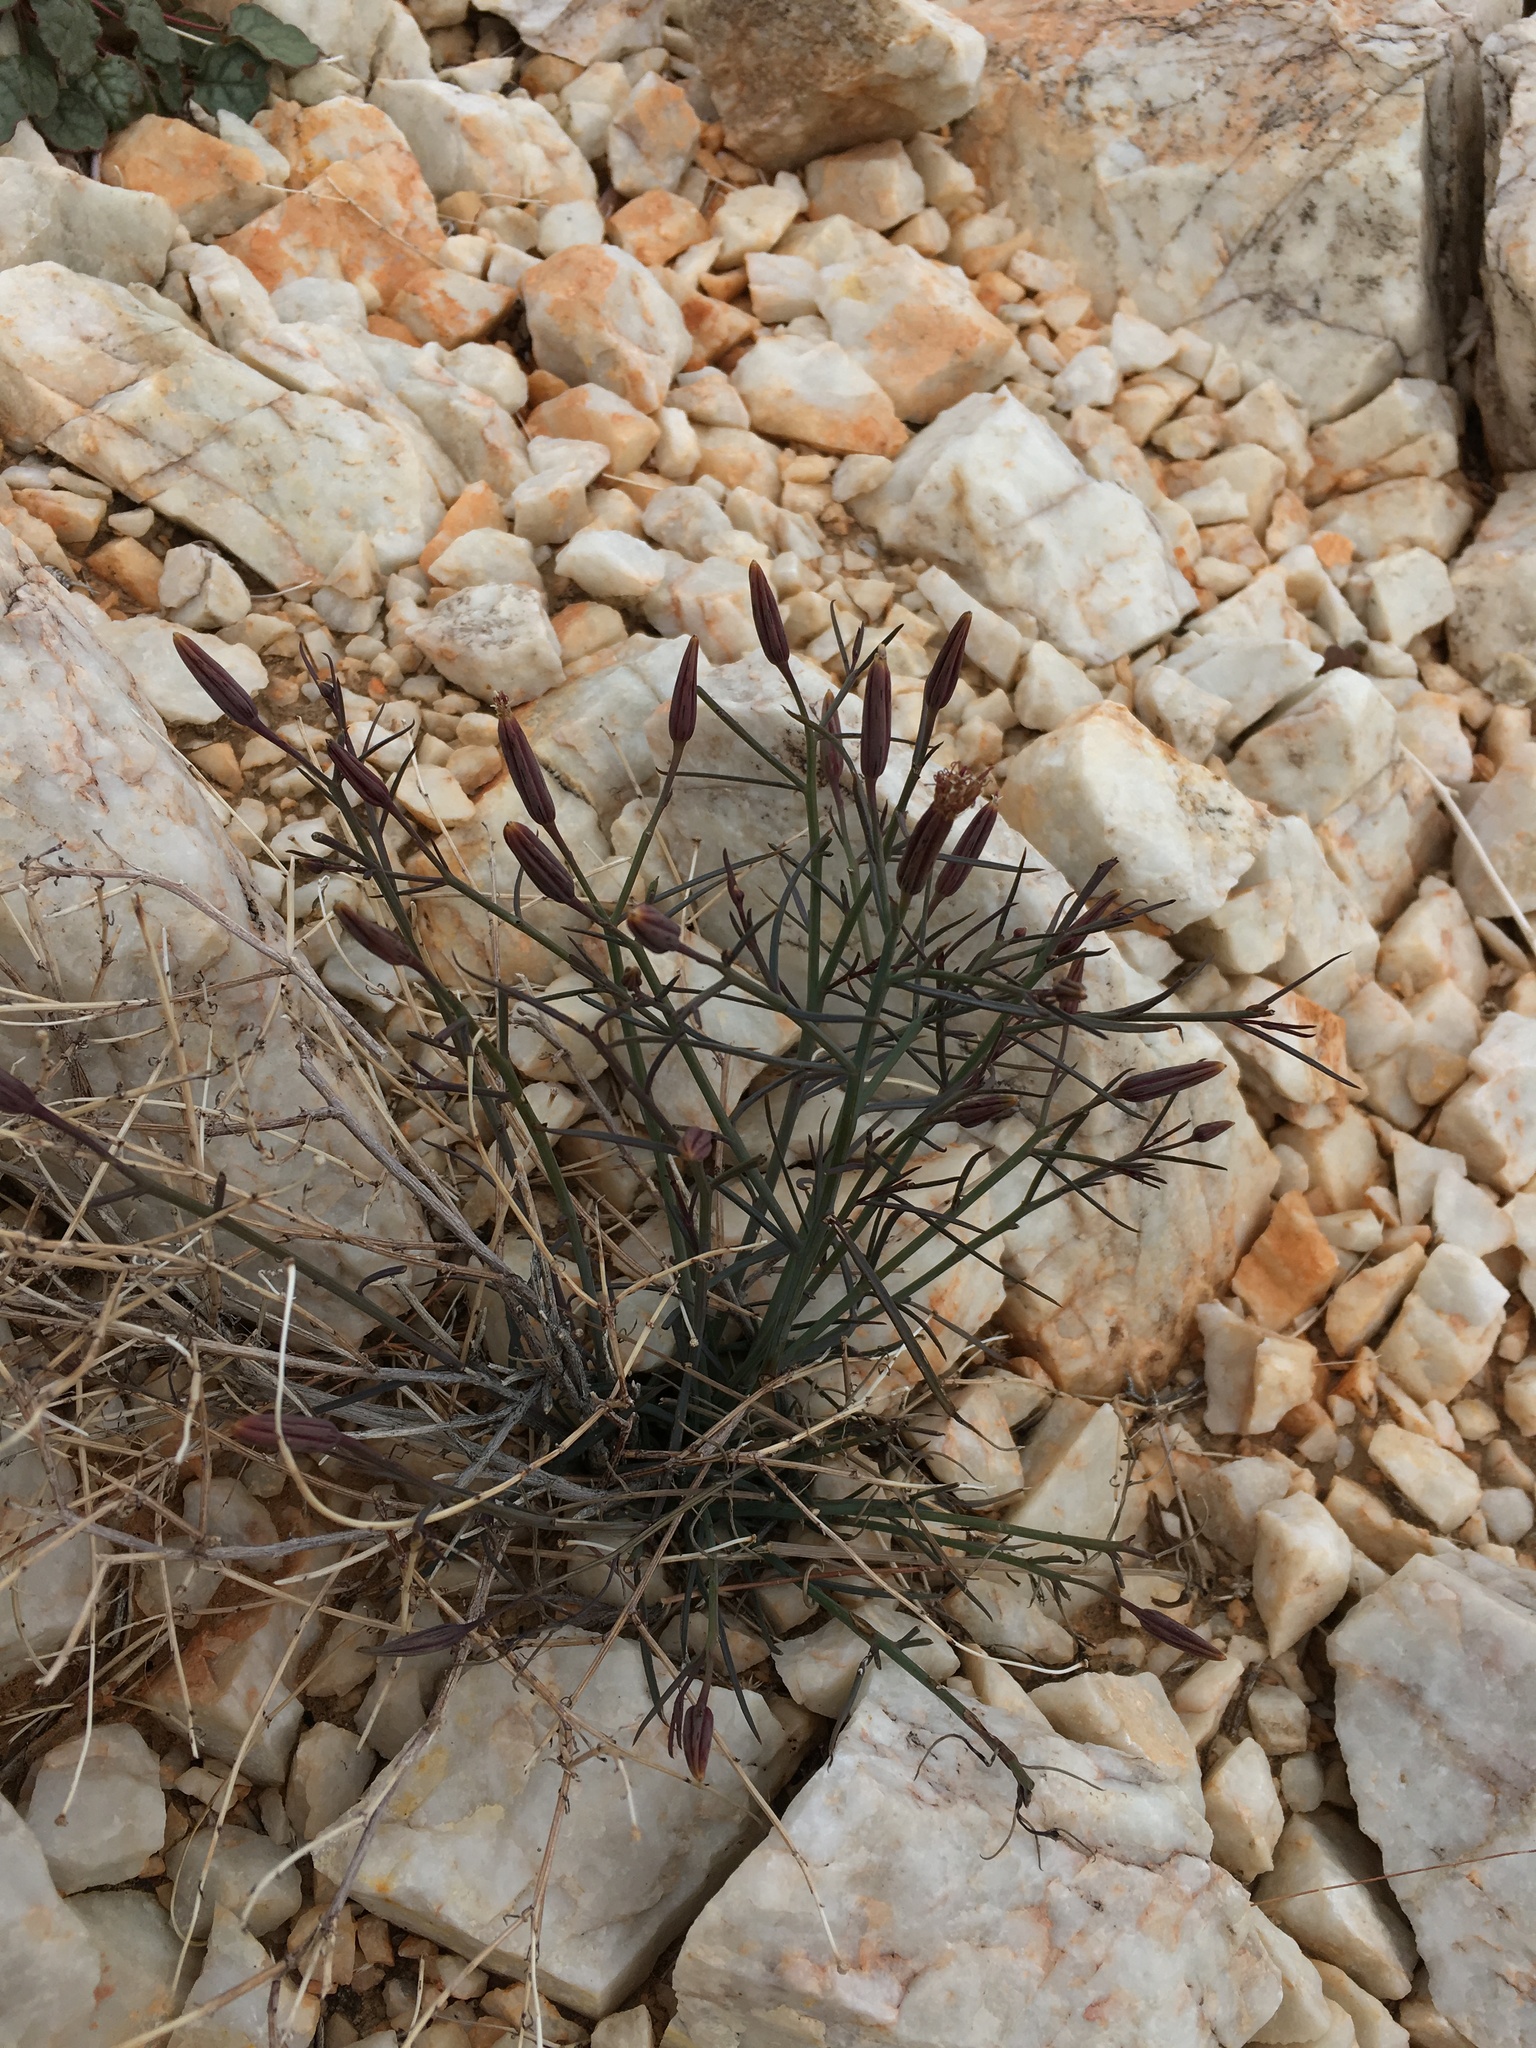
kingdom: Plantae
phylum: Tracheophyta
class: Magnoliopsida
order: Asterales
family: Asteraceae
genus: Porophyllum
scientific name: Porophyllum gracile
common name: Odora
